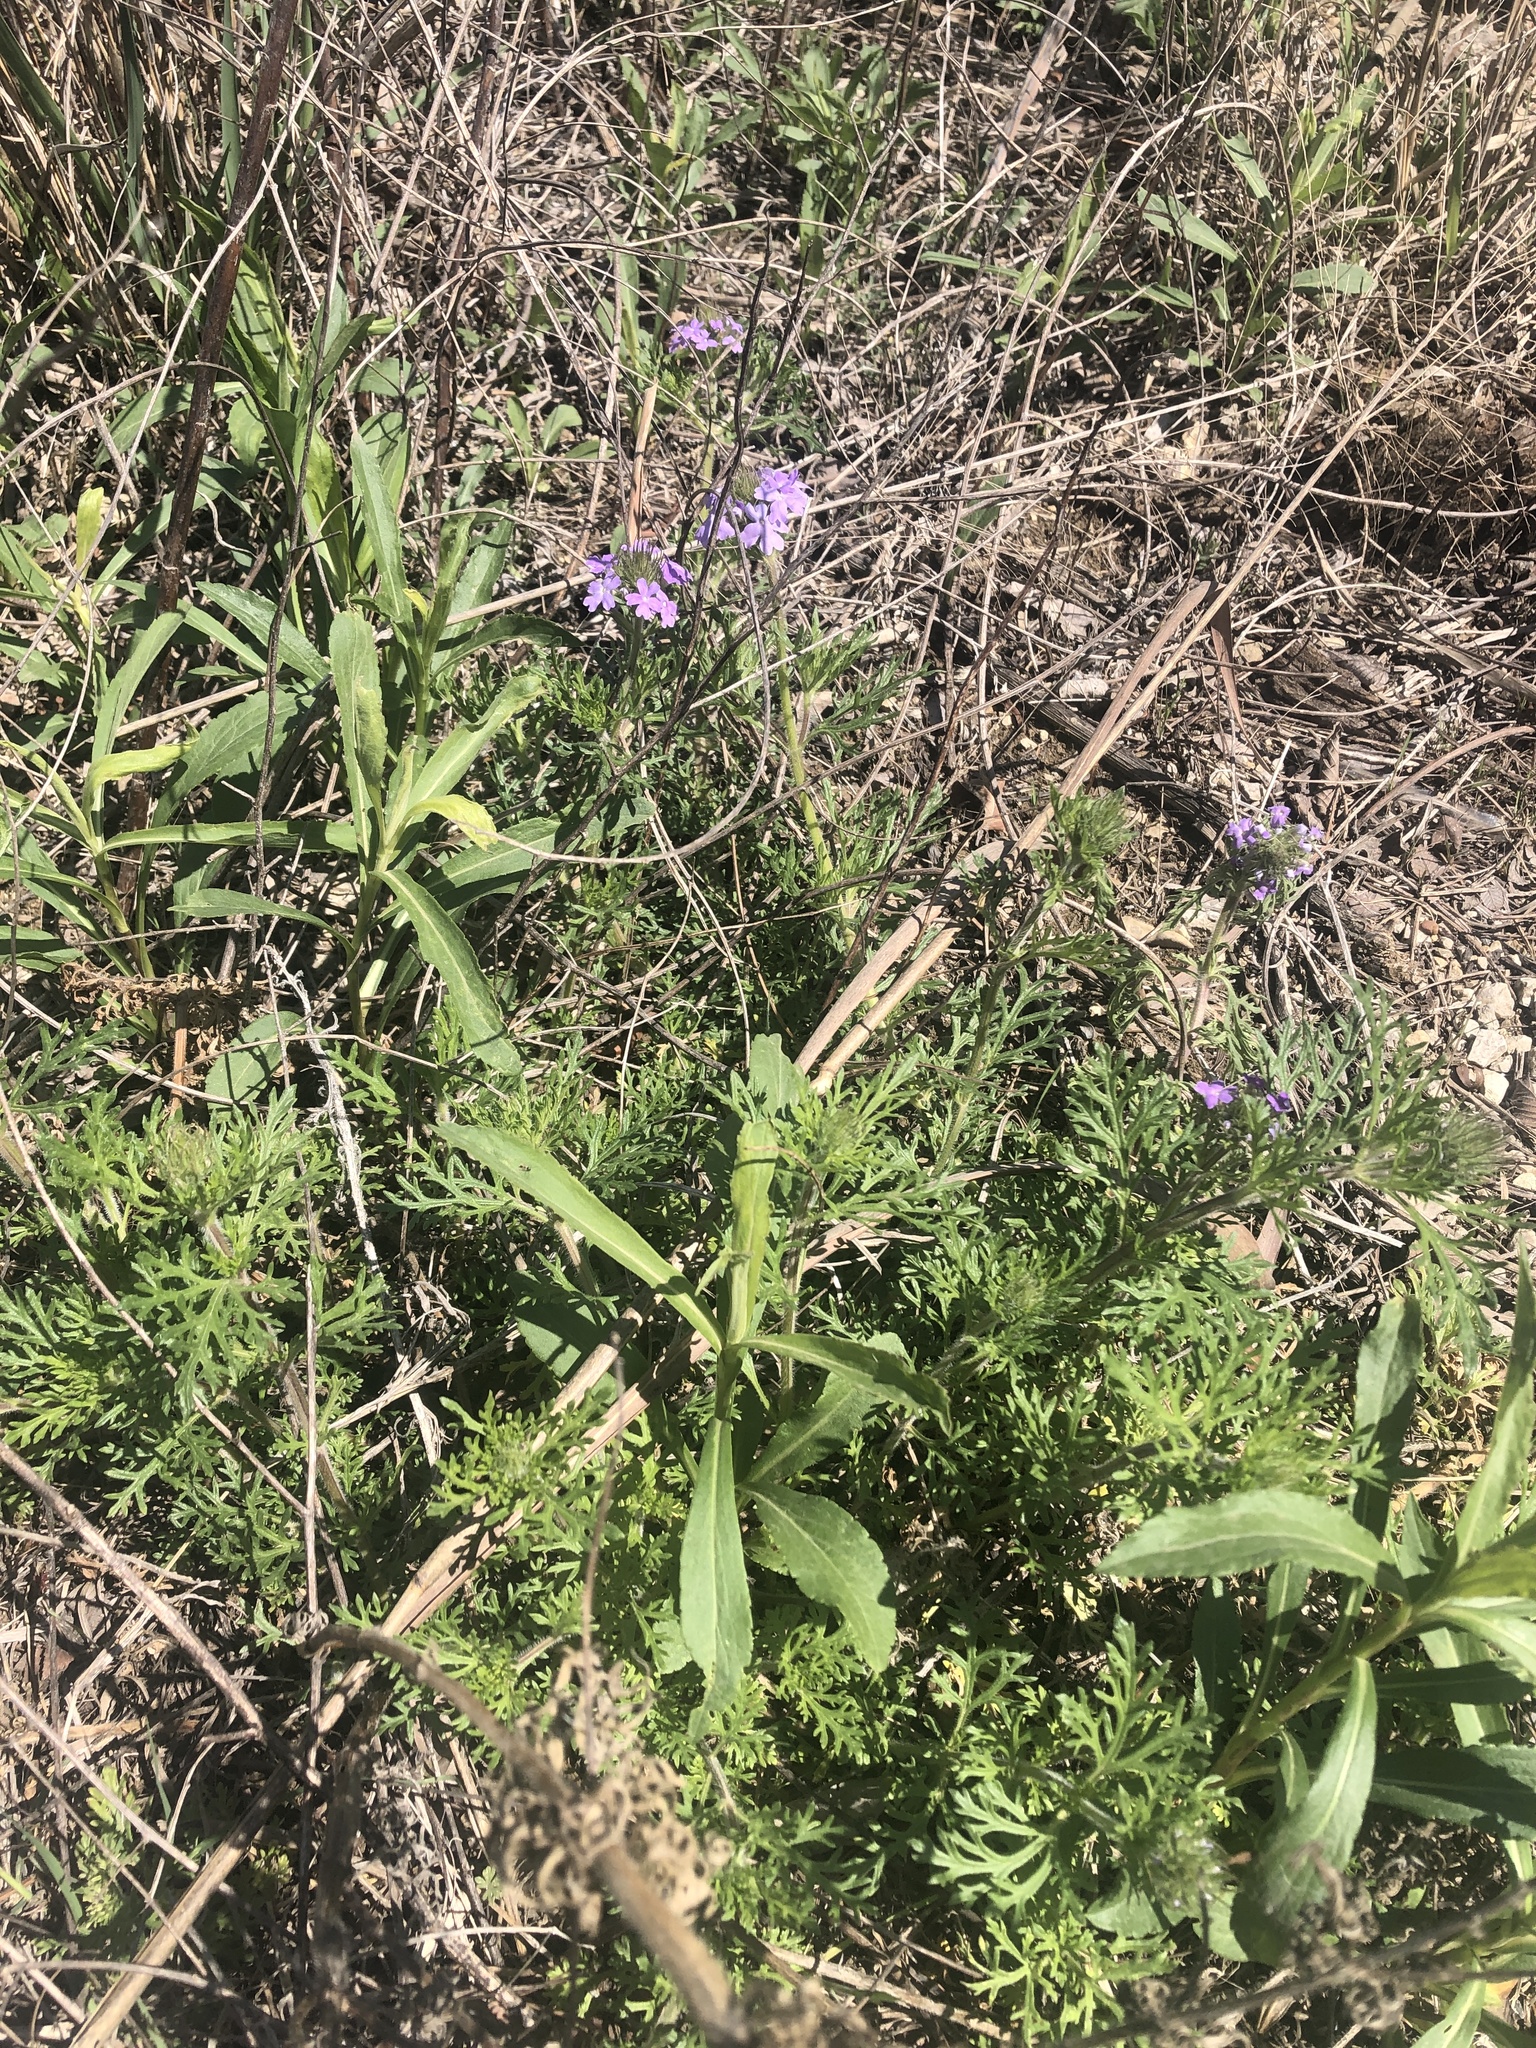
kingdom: Plantae
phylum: Tracheophyta
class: Magnoliopsida
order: Lamiales
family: Verbenaceae
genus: Verbena
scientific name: Verbena bipinnatifida
